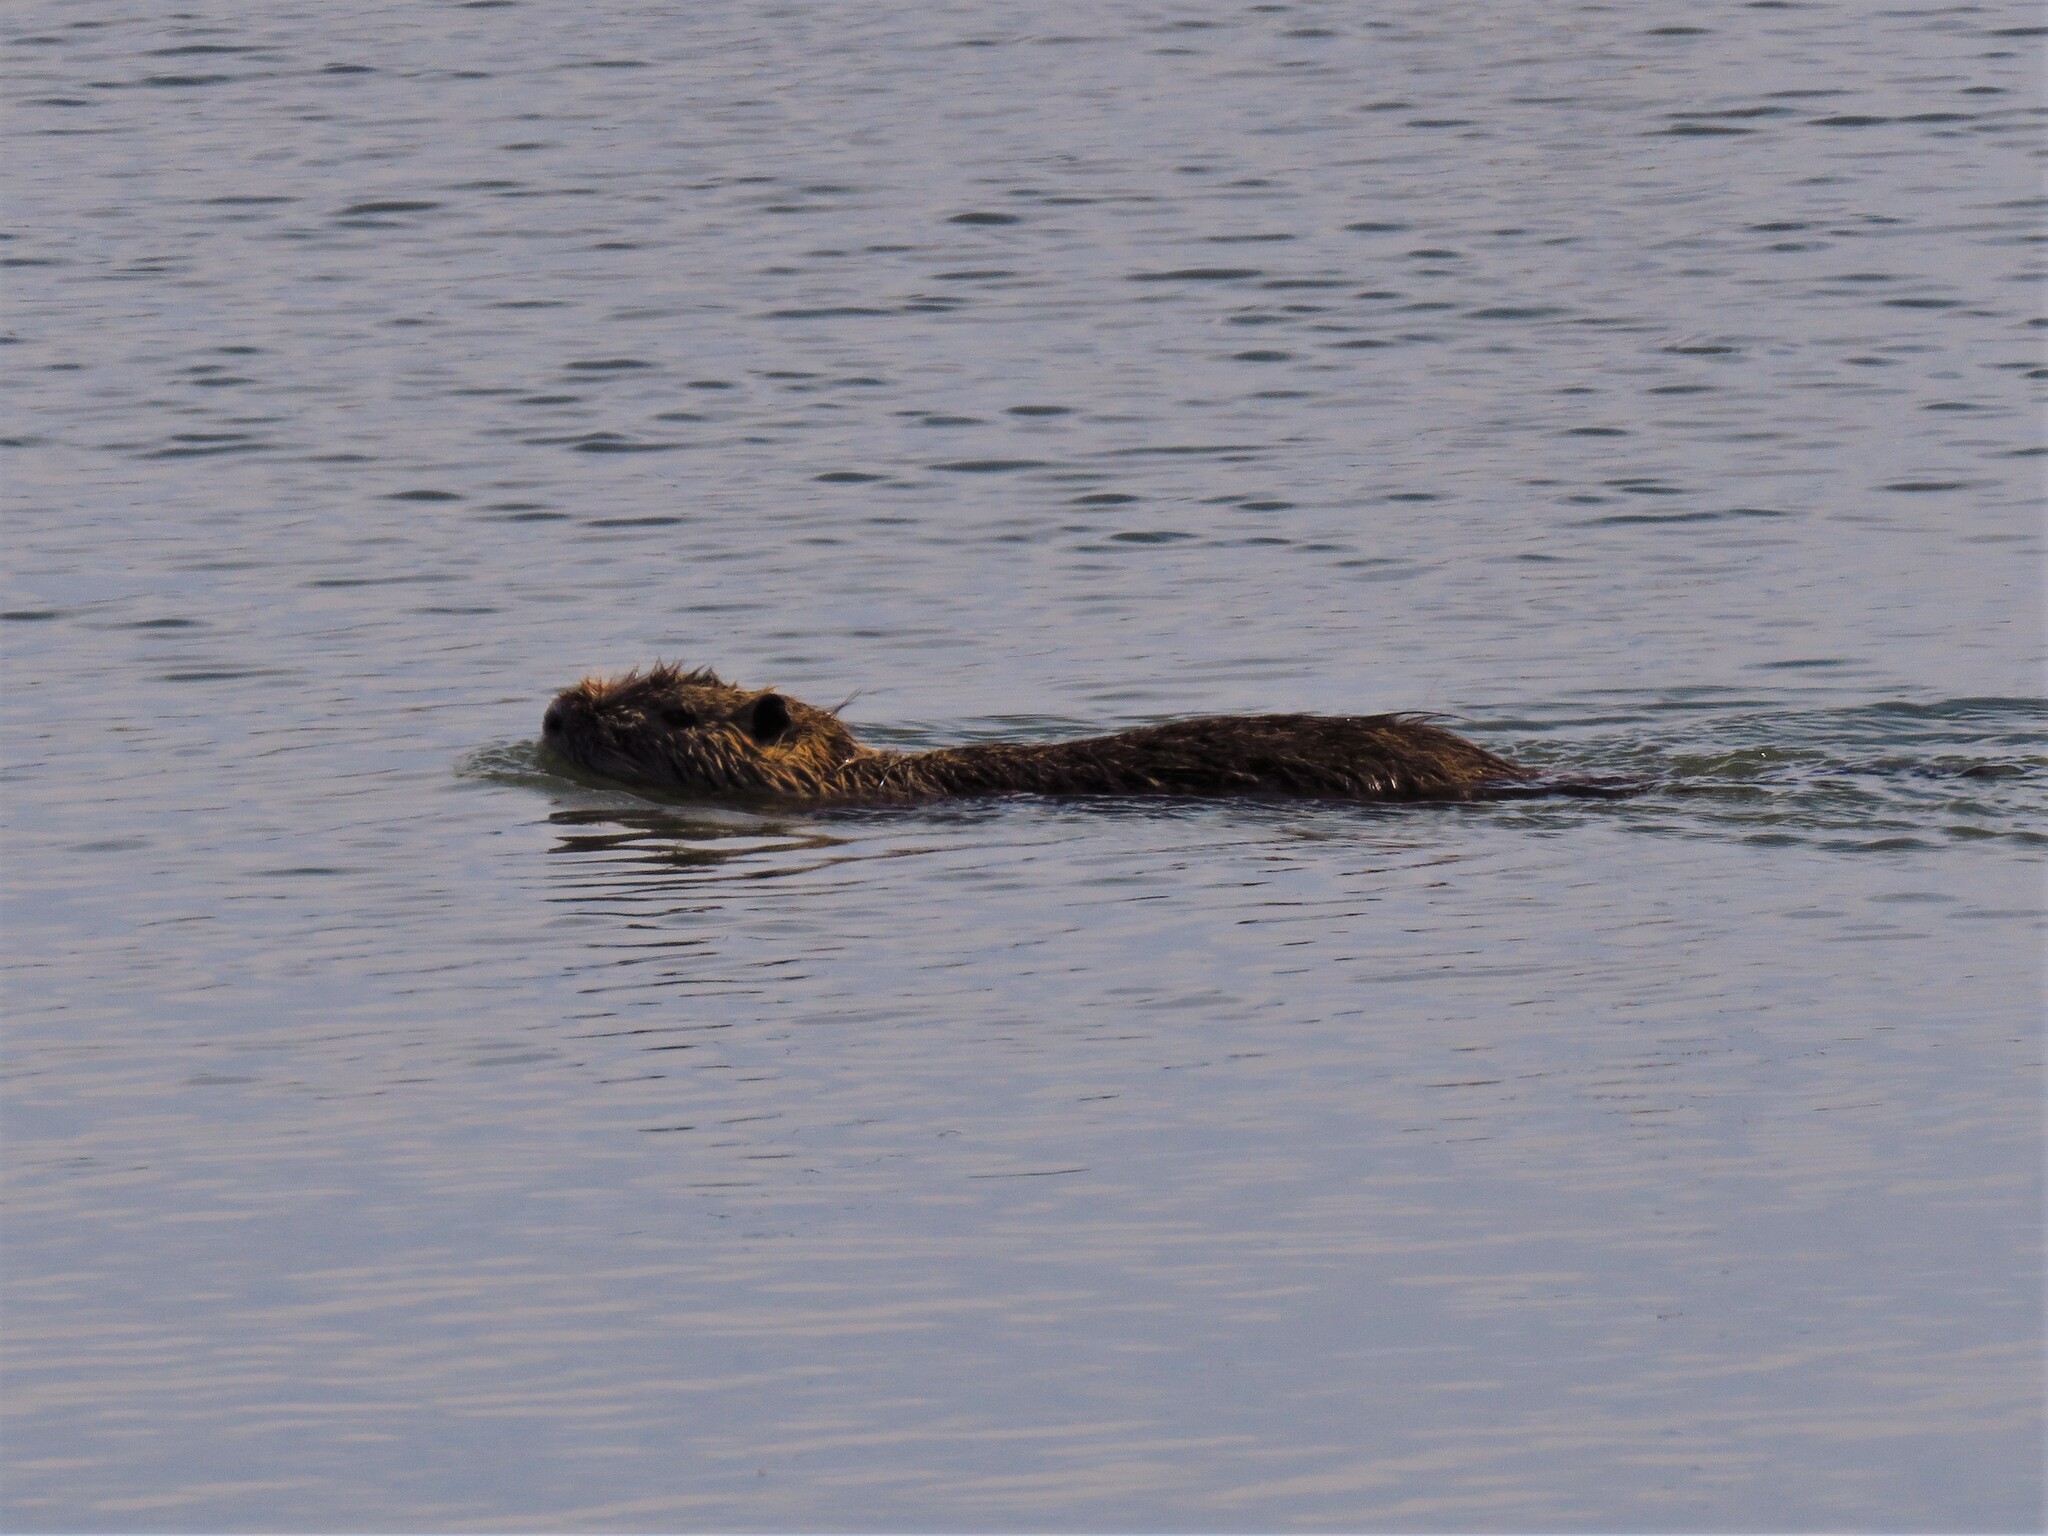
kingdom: Animalia
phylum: Chordata
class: Mammalia
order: Rodentia
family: Myocastoridae
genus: Myocastor
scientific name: Myocastor coypus
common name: Coypu
